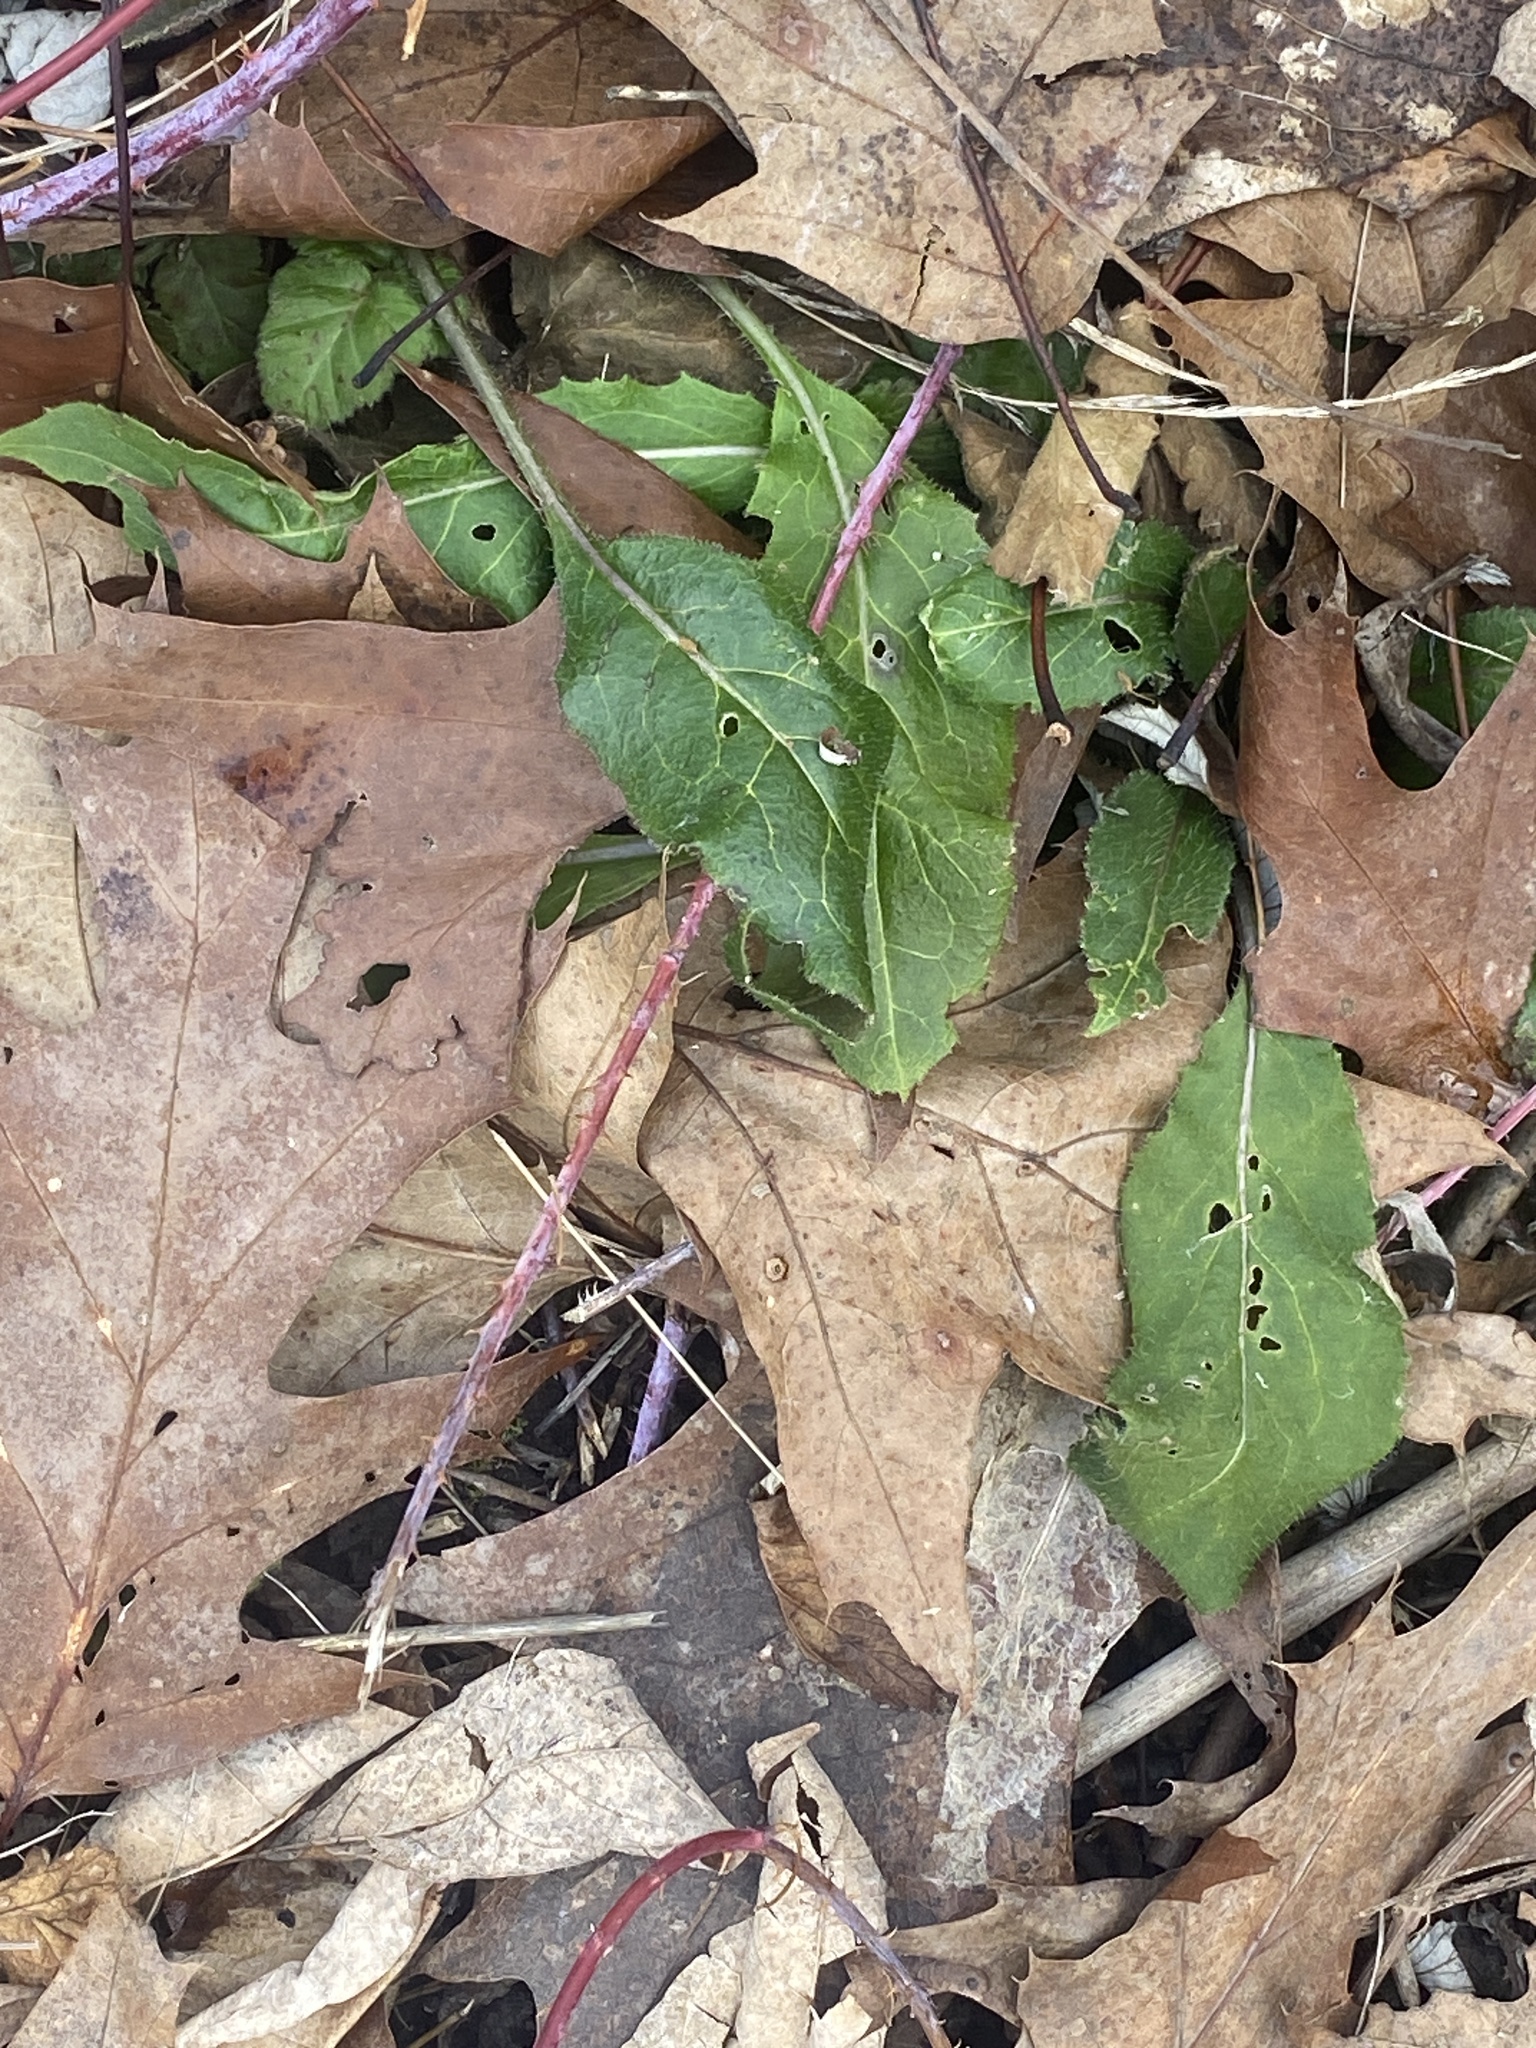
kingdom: Plantae
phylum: Tracheophyta
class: Magnoliopsida
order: Brassicales
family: Brassicaceae
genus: Hesperis
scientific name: Hesperis matronalis
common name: Dame's-violet
